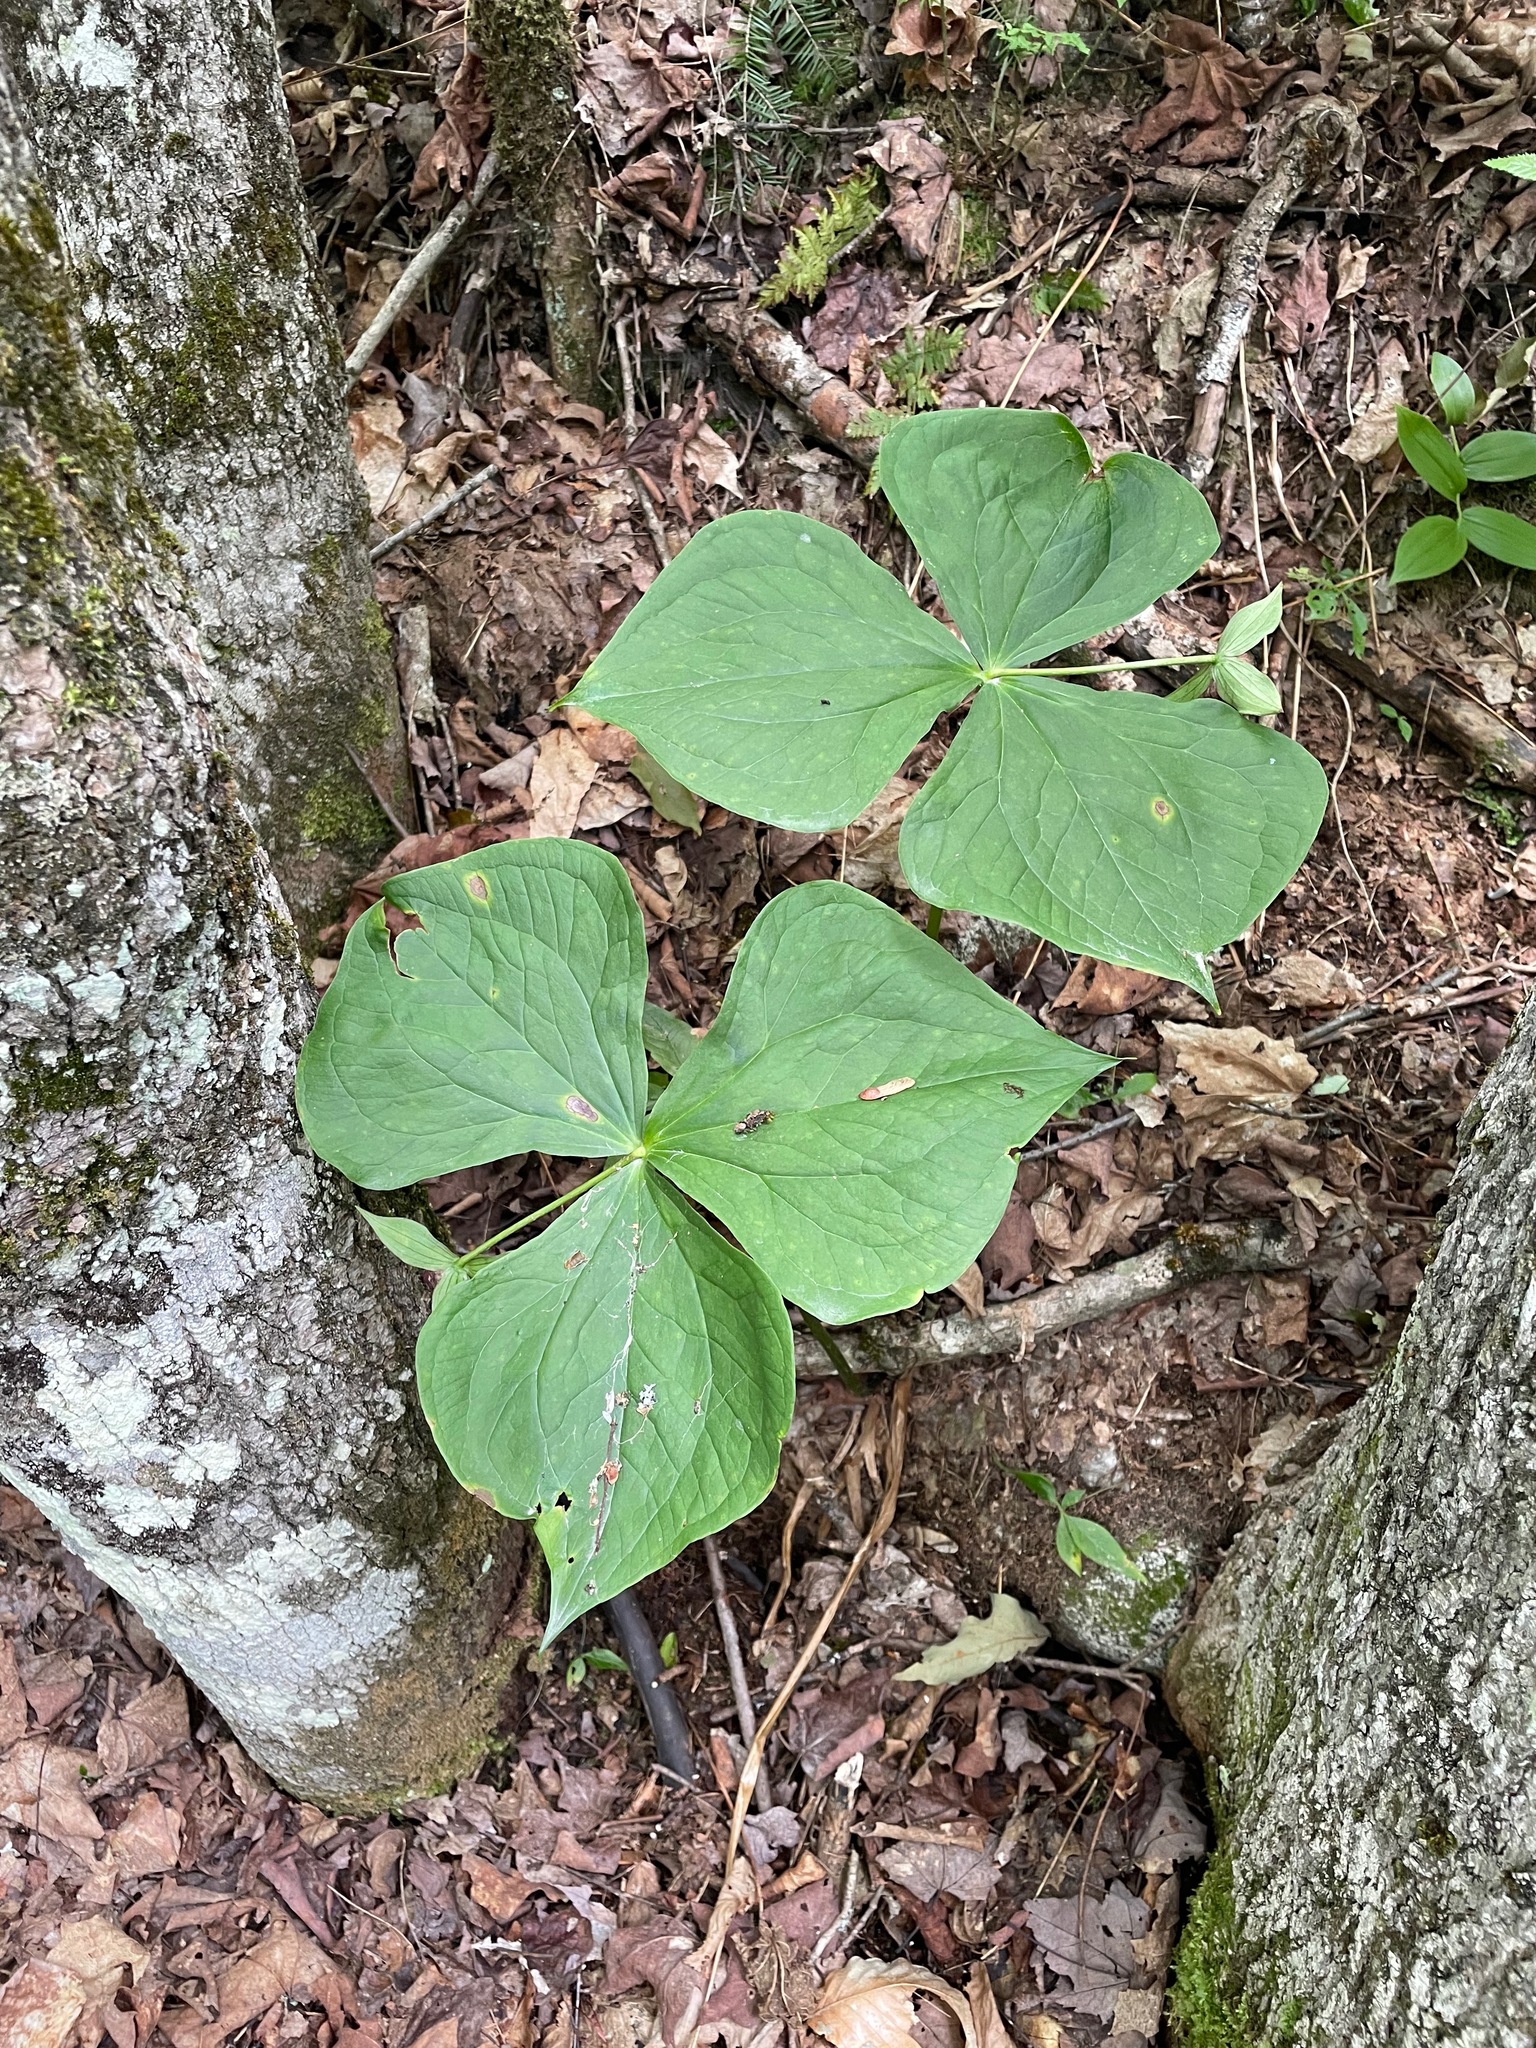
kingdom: Plantae
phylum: Tracheophyta
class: Liliopsida
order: Liliales
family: Melanthiaceae
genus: Trillium
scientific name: Trillium erectum
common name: Purple trillium
